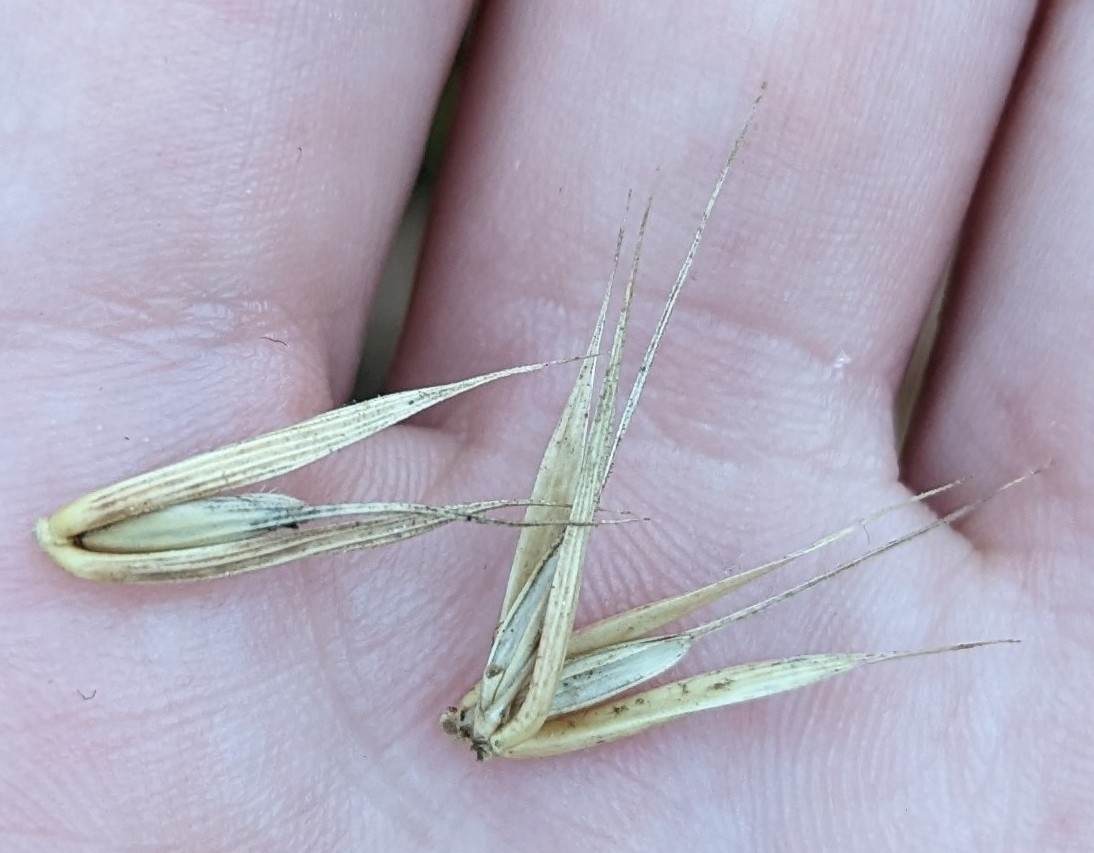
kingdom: Plantae
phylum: Tracheophyta
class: Liliopsida
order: Poales
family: Poaceae
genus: Elymus
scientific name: Elymus virginicus
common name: Common eastern wildrye
